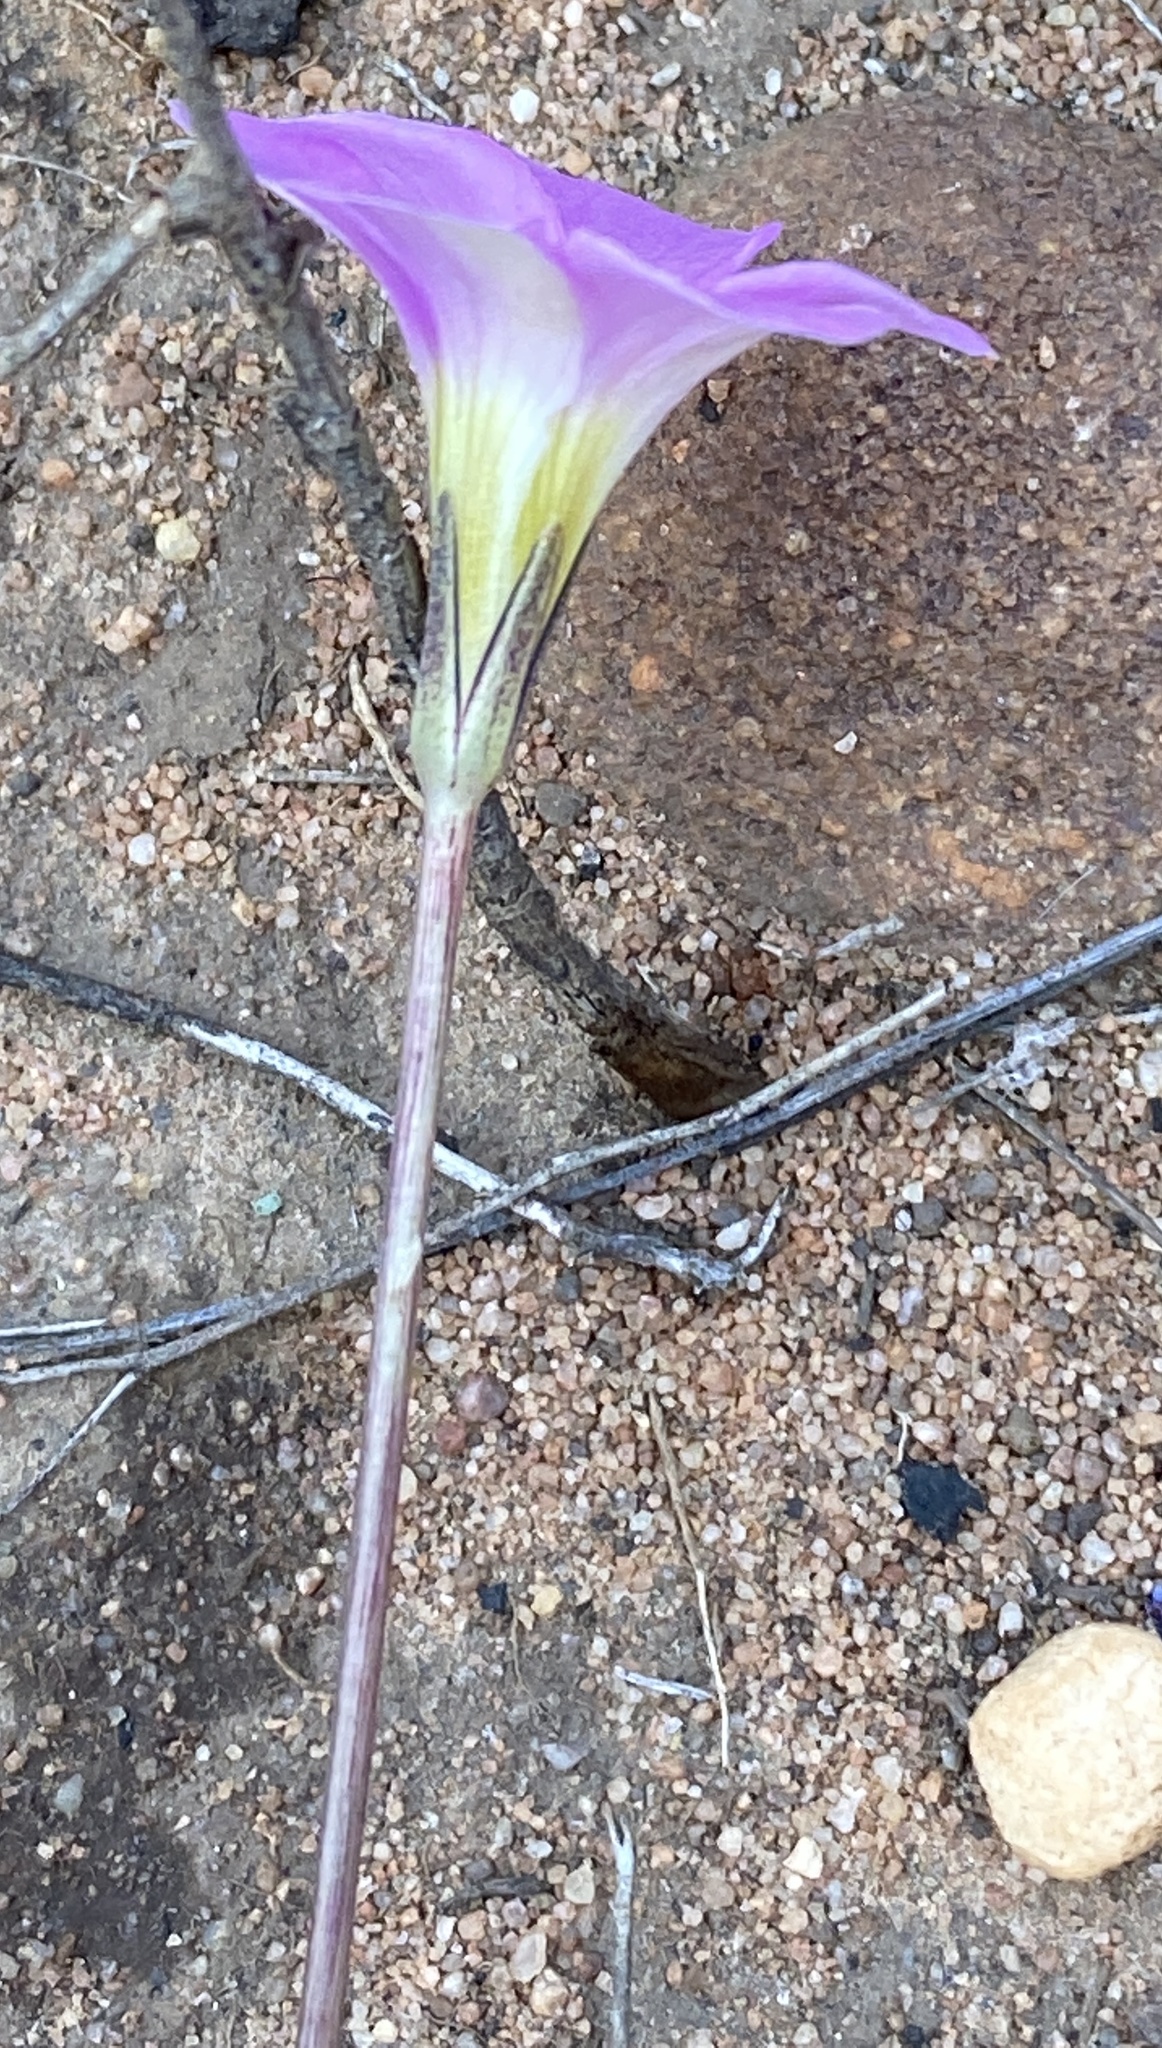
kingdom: Plantae
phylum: Tracheophyta
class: Magnoliopsida
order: Oxalidales
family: Oxalidaceae
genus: Oxalis
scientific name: Oxalis pocockiae
